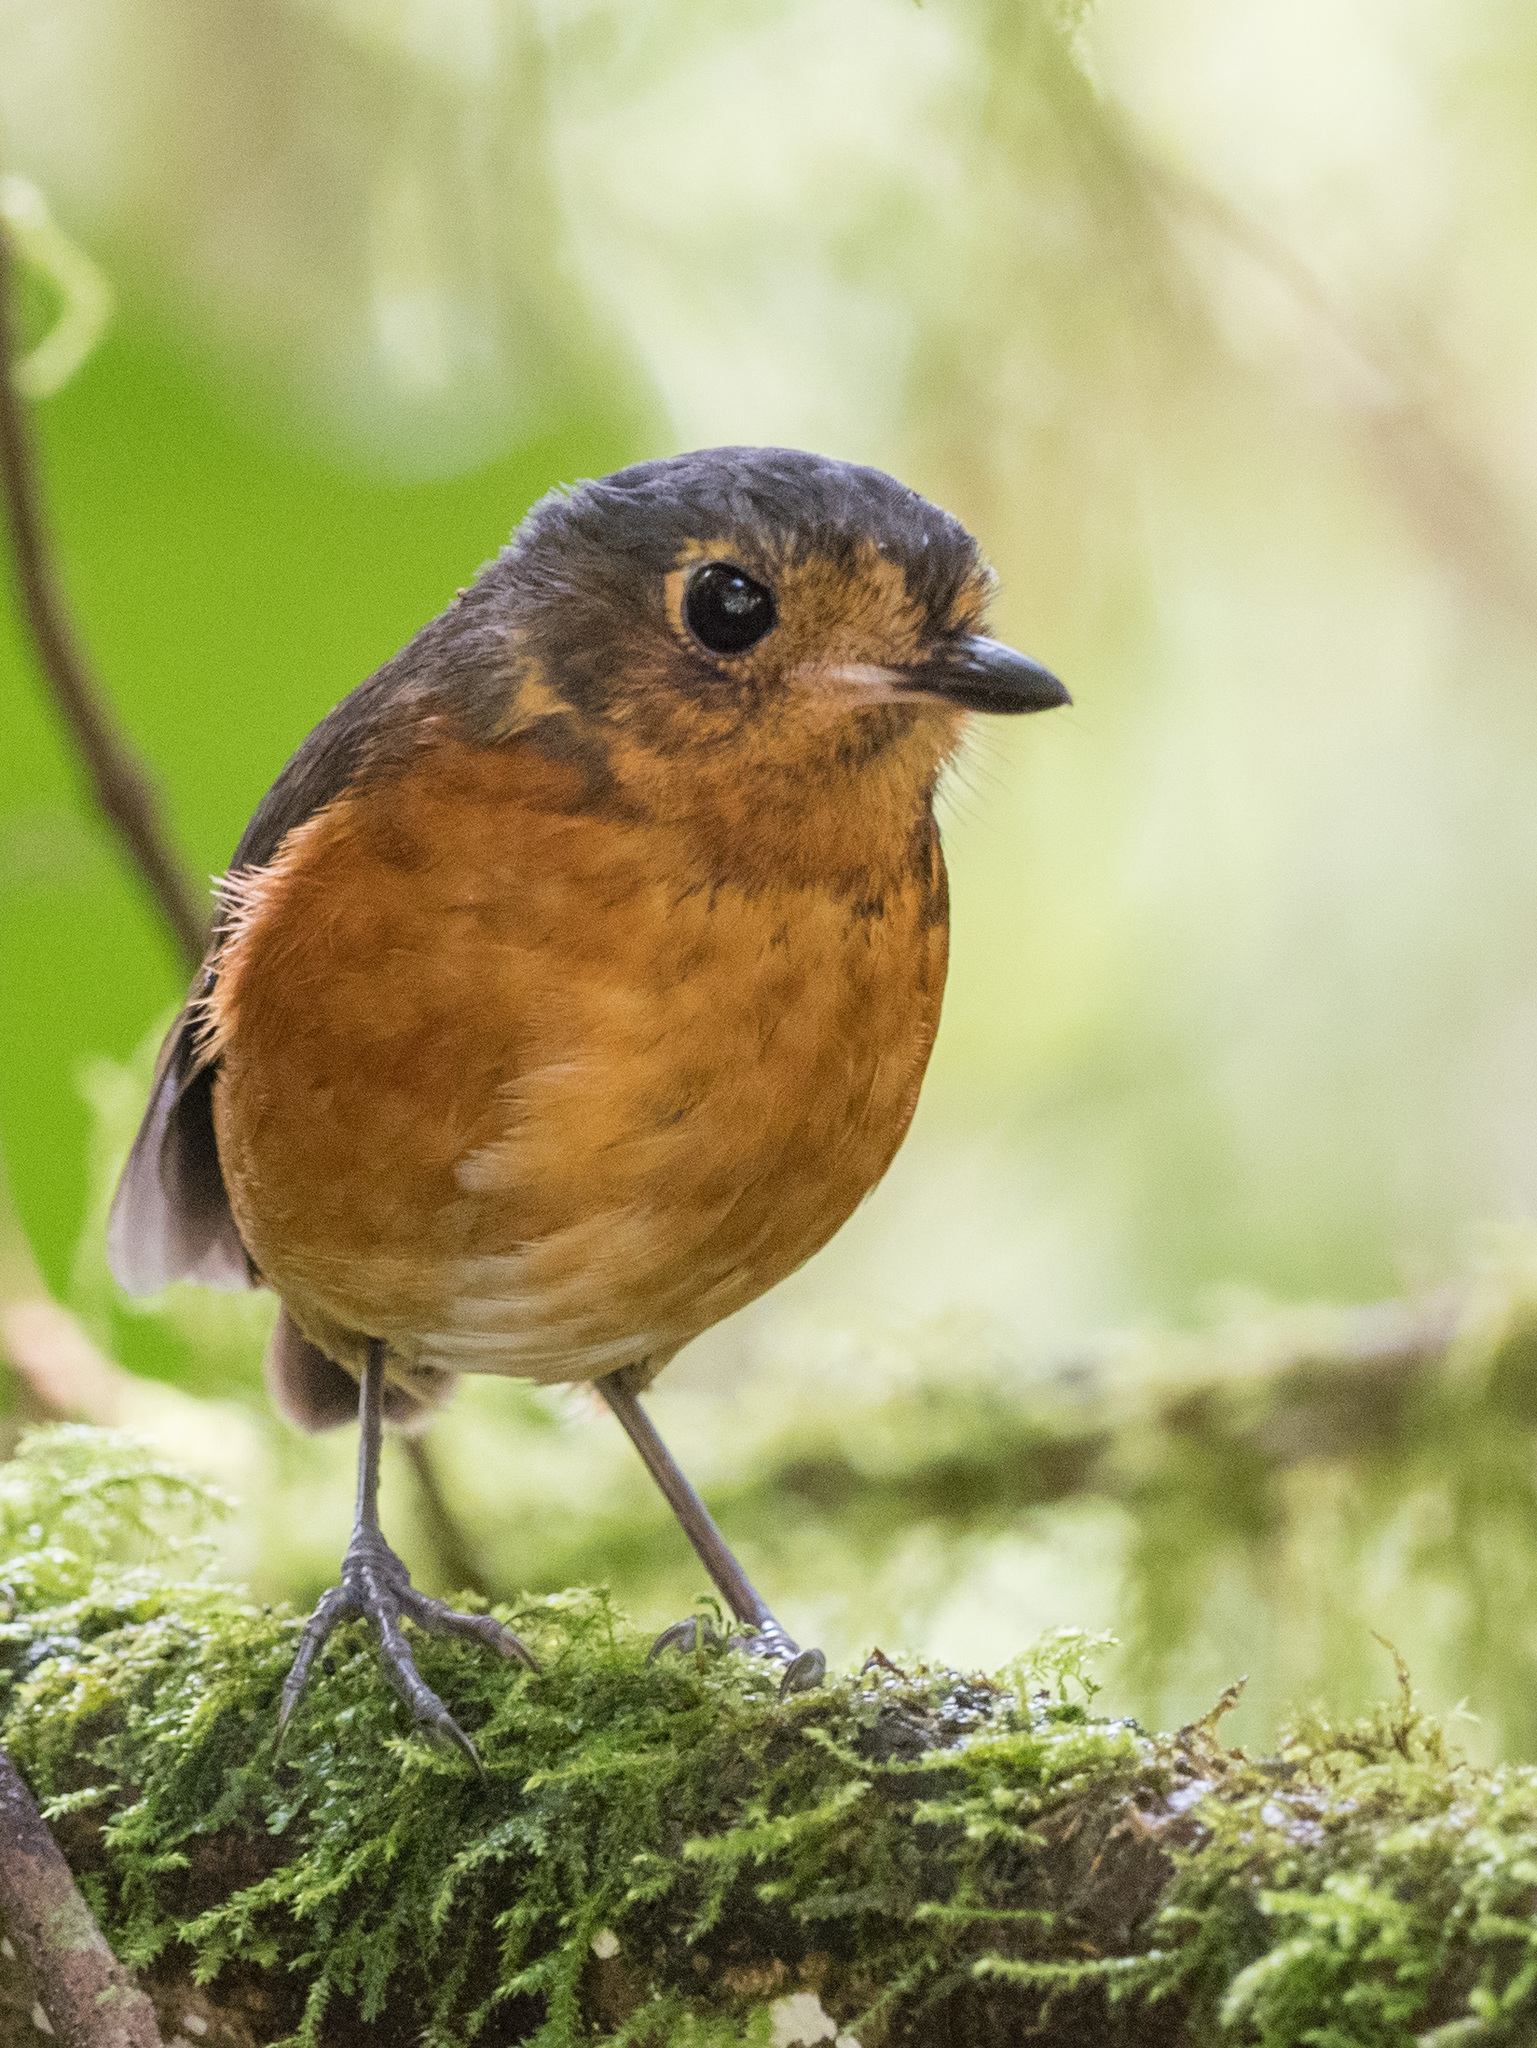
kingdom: Animalia
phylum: Chordata
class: Aves
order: Passeriformes
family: Grallariidae
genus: Grallaricula
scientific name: Grallaricula nana
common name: Slaty-crowned antpitta
